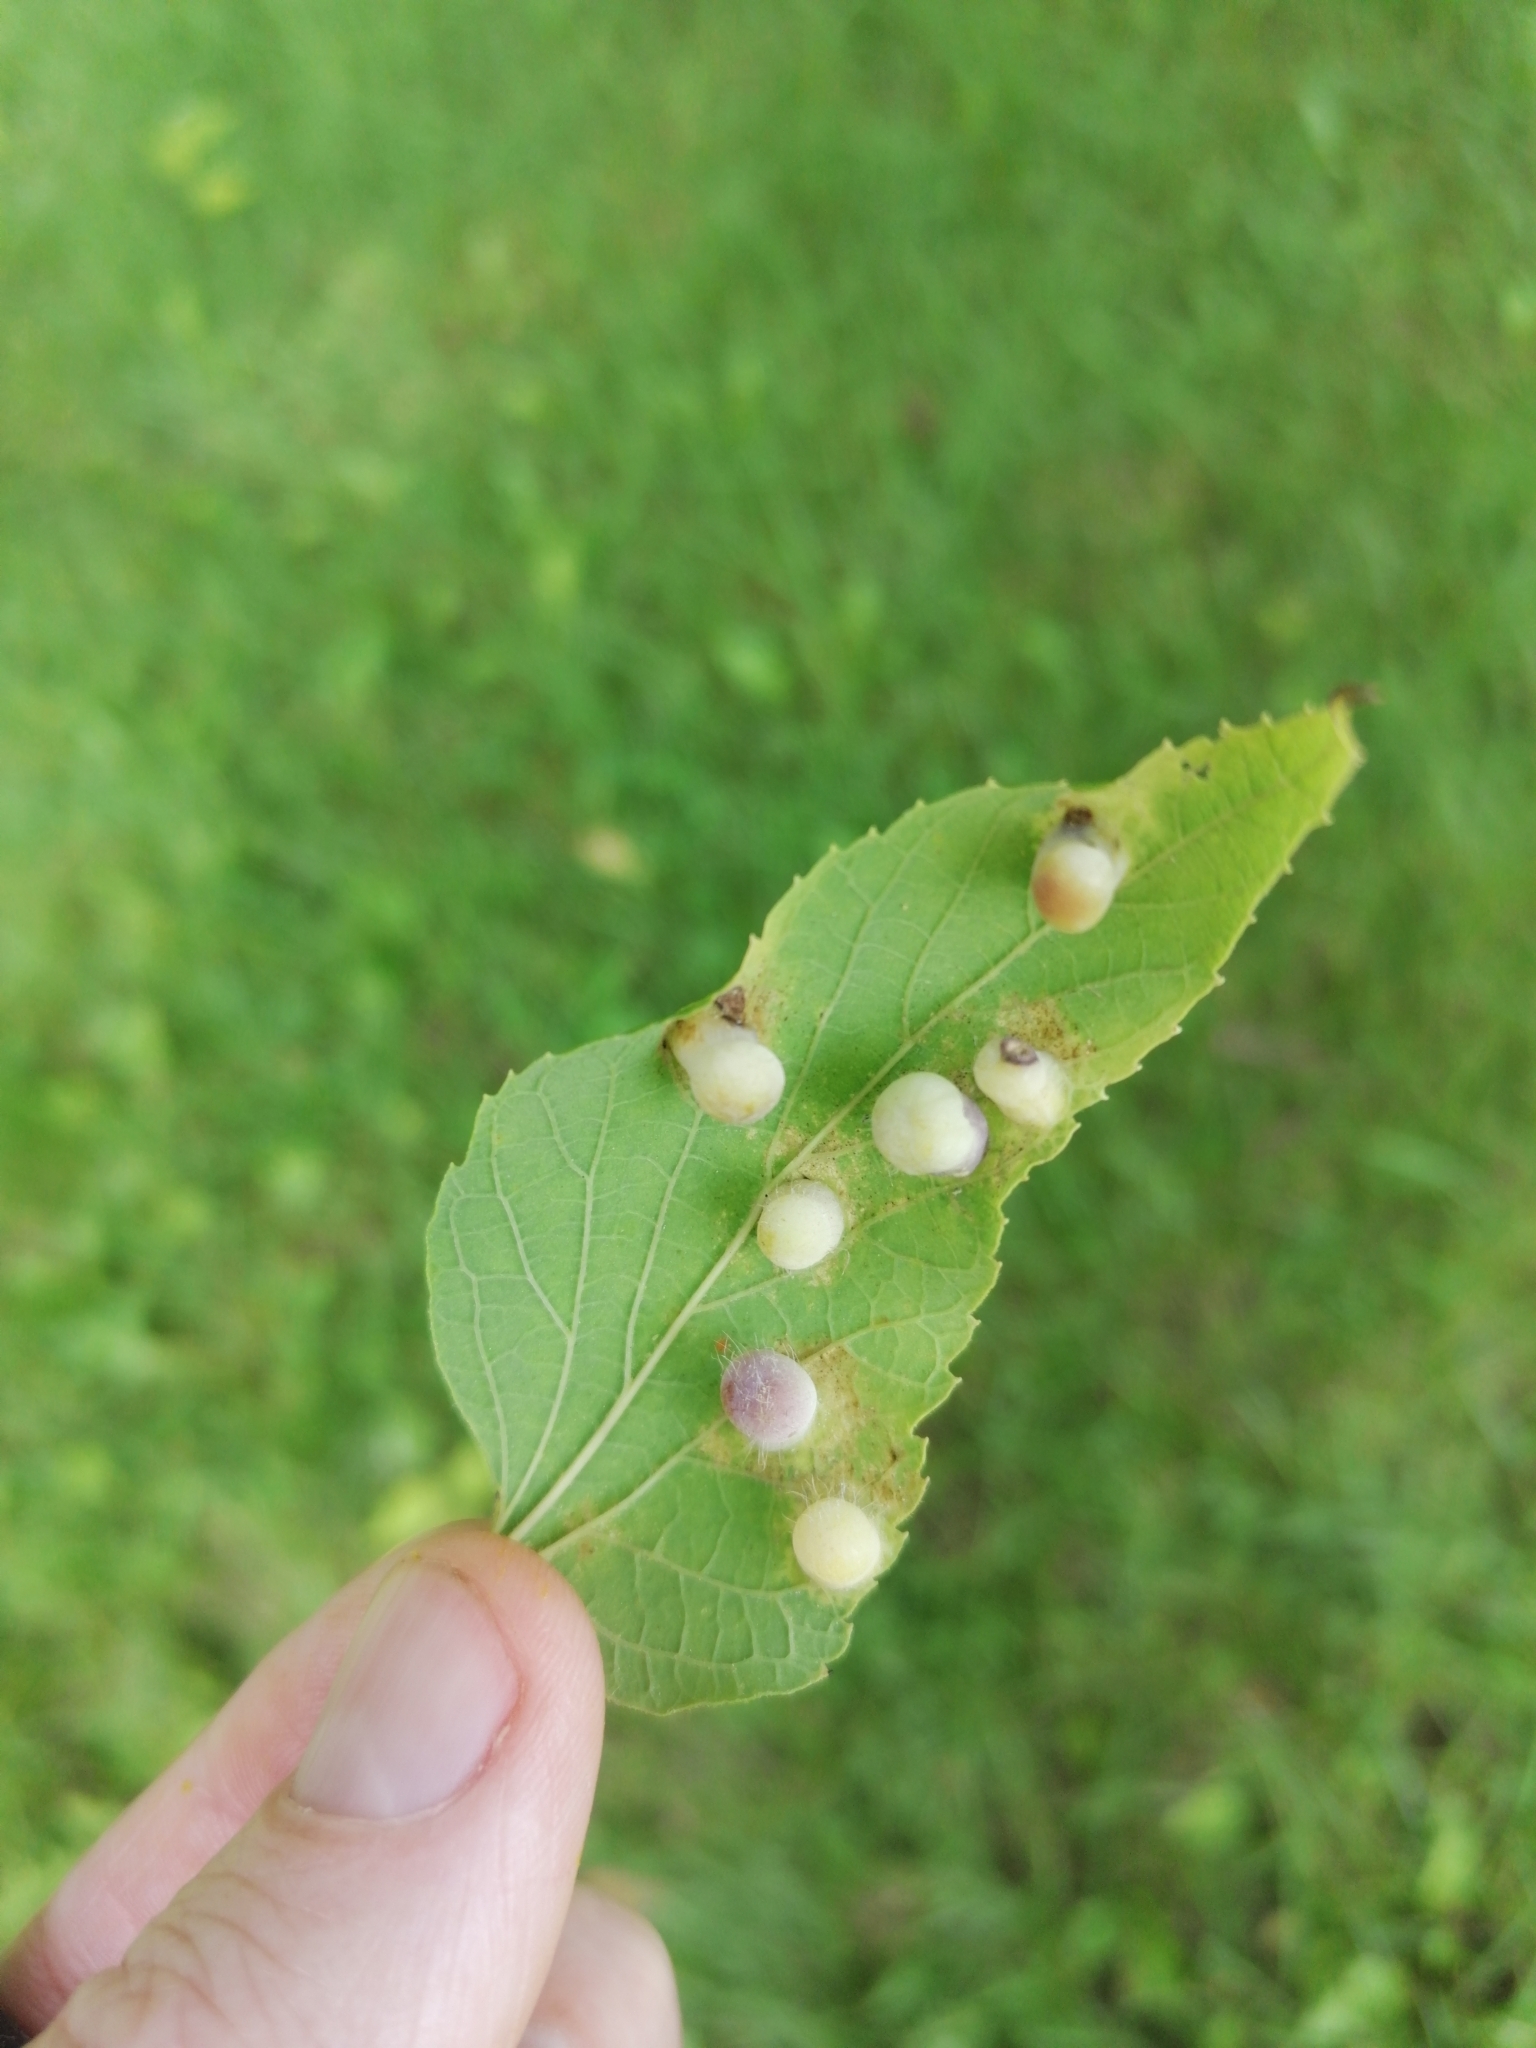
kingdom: Animalia
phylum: Arthropoda
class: Insecta
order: Hemiptera
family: Aphalaridae
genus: Pachypsylla
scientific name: Pachypsylla celtidismamma
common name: Hackberry nipplegall psyllid
